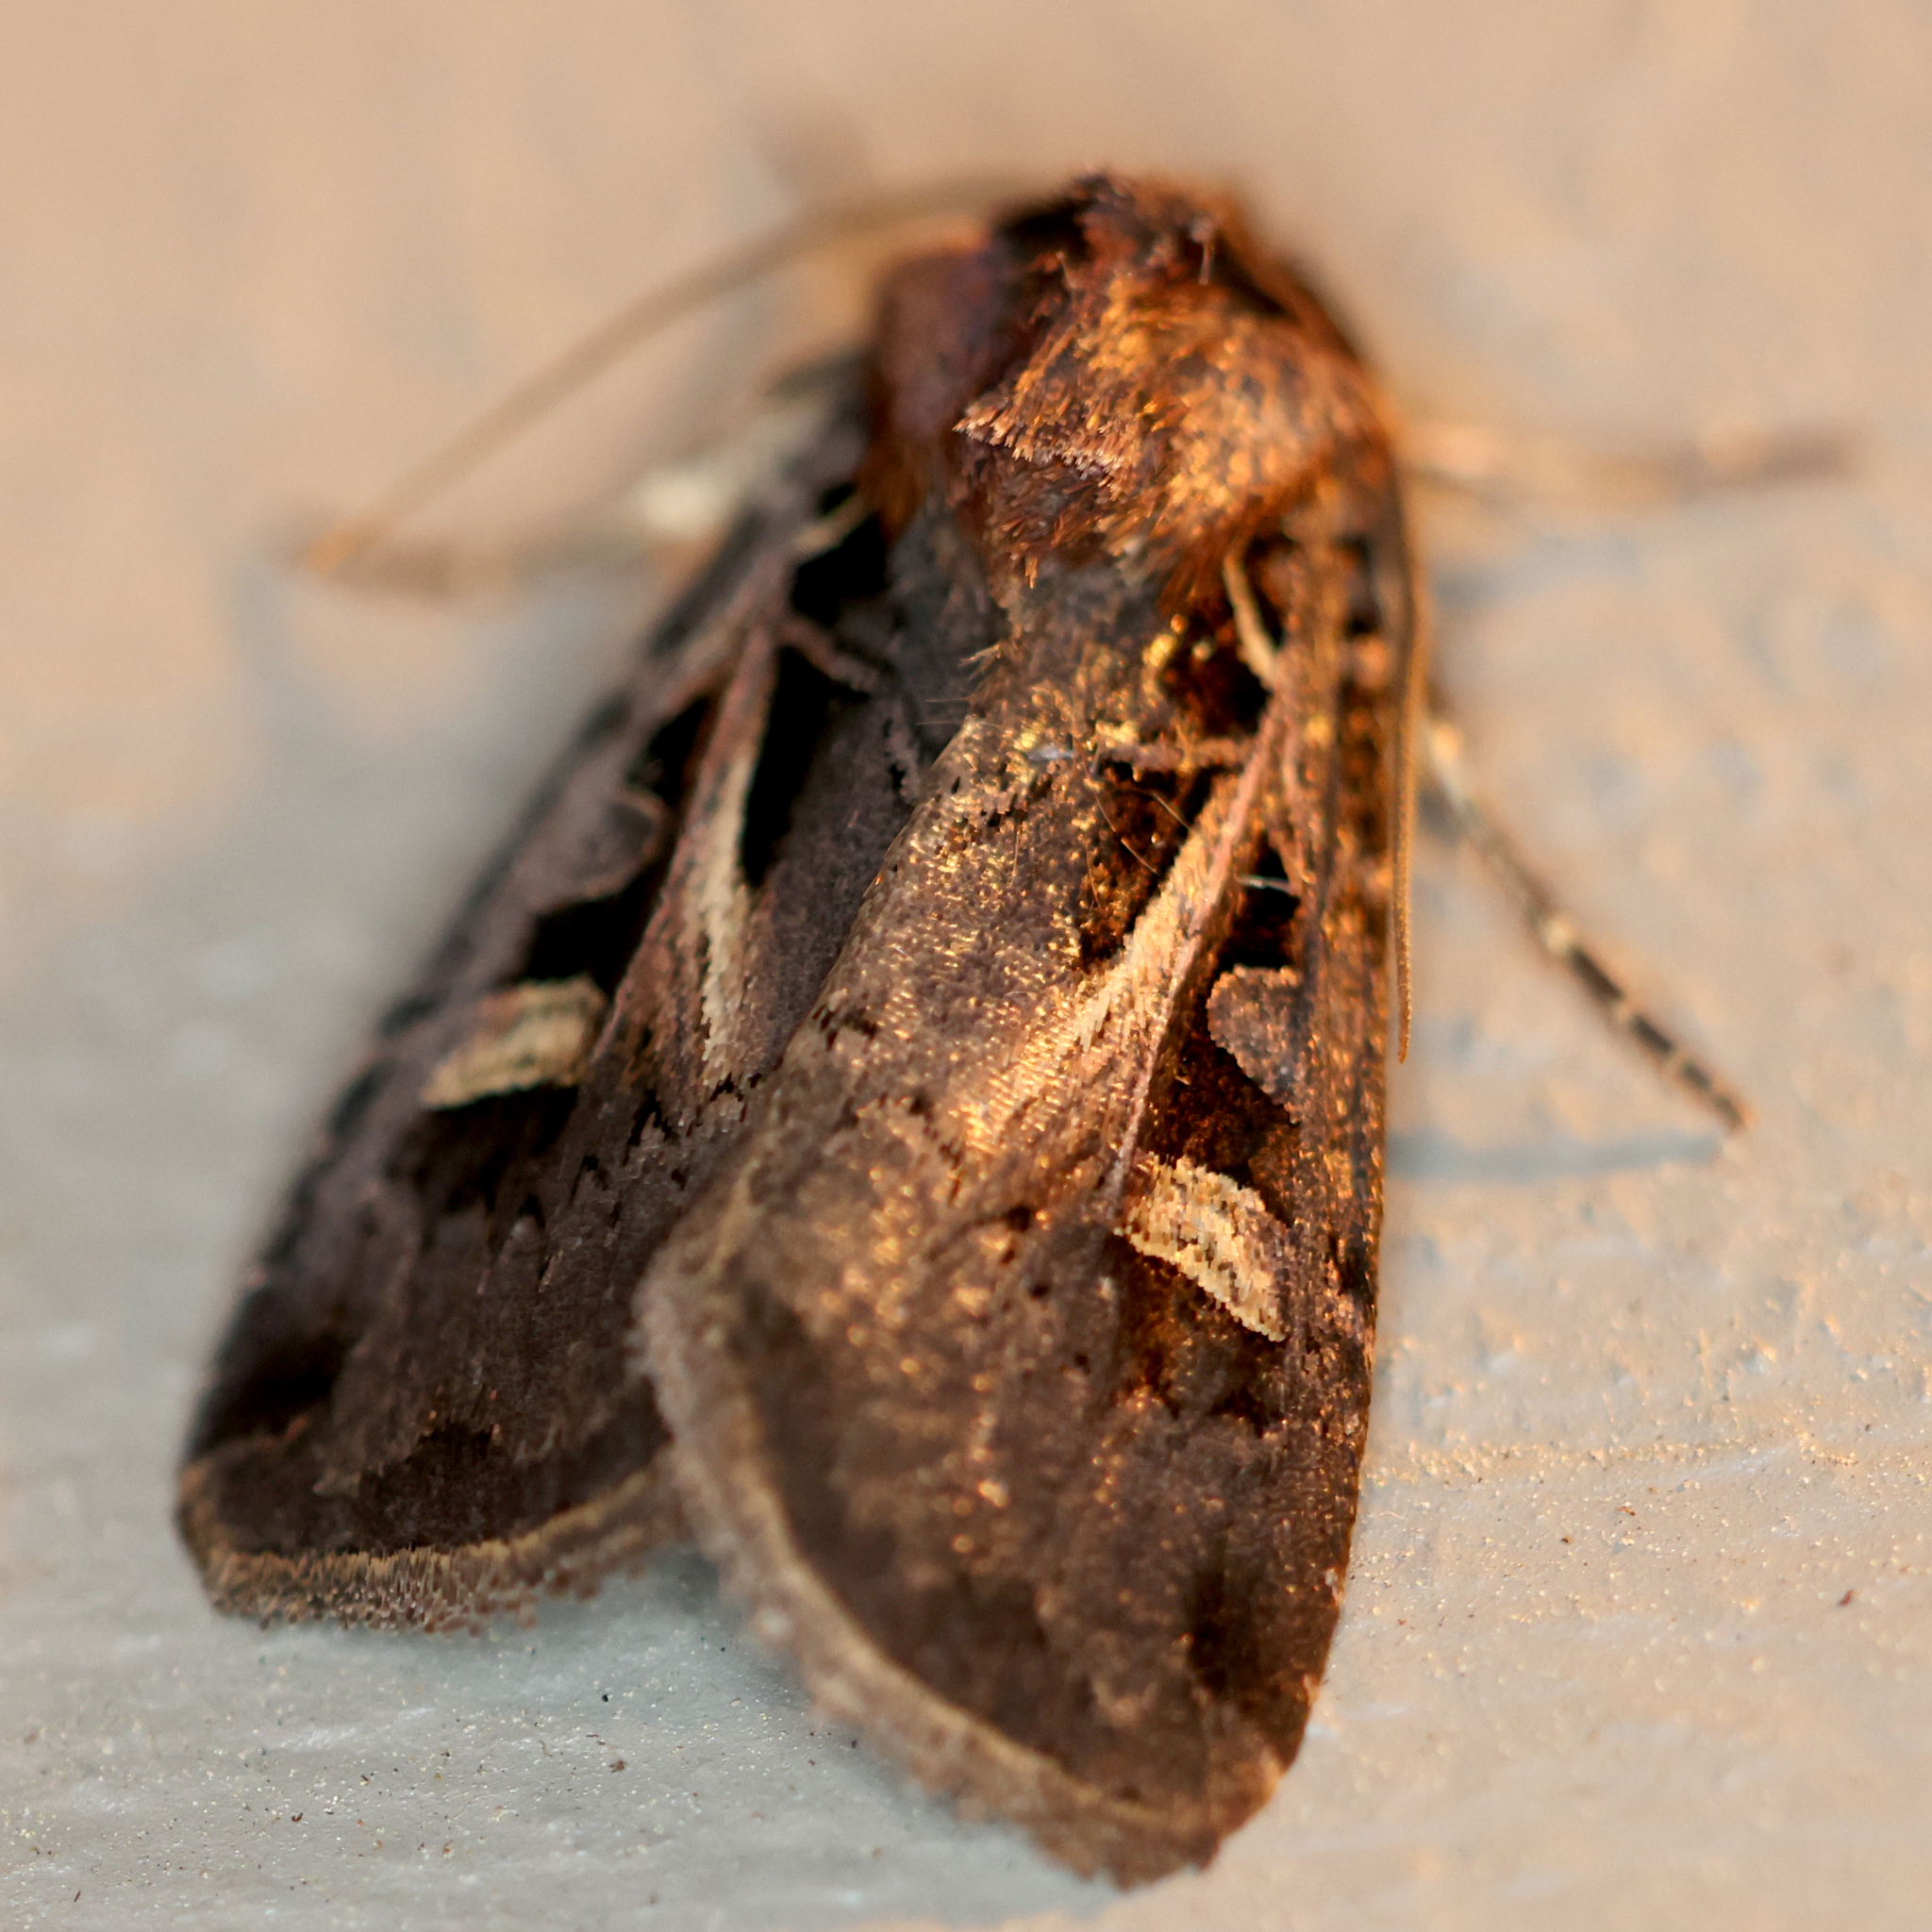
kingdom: Animalia
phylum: Arthropoda
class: Insecta
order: Lepidoptera
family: Noctuidae
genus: Feltia
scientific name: Feltia herilis
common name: Master's dart
